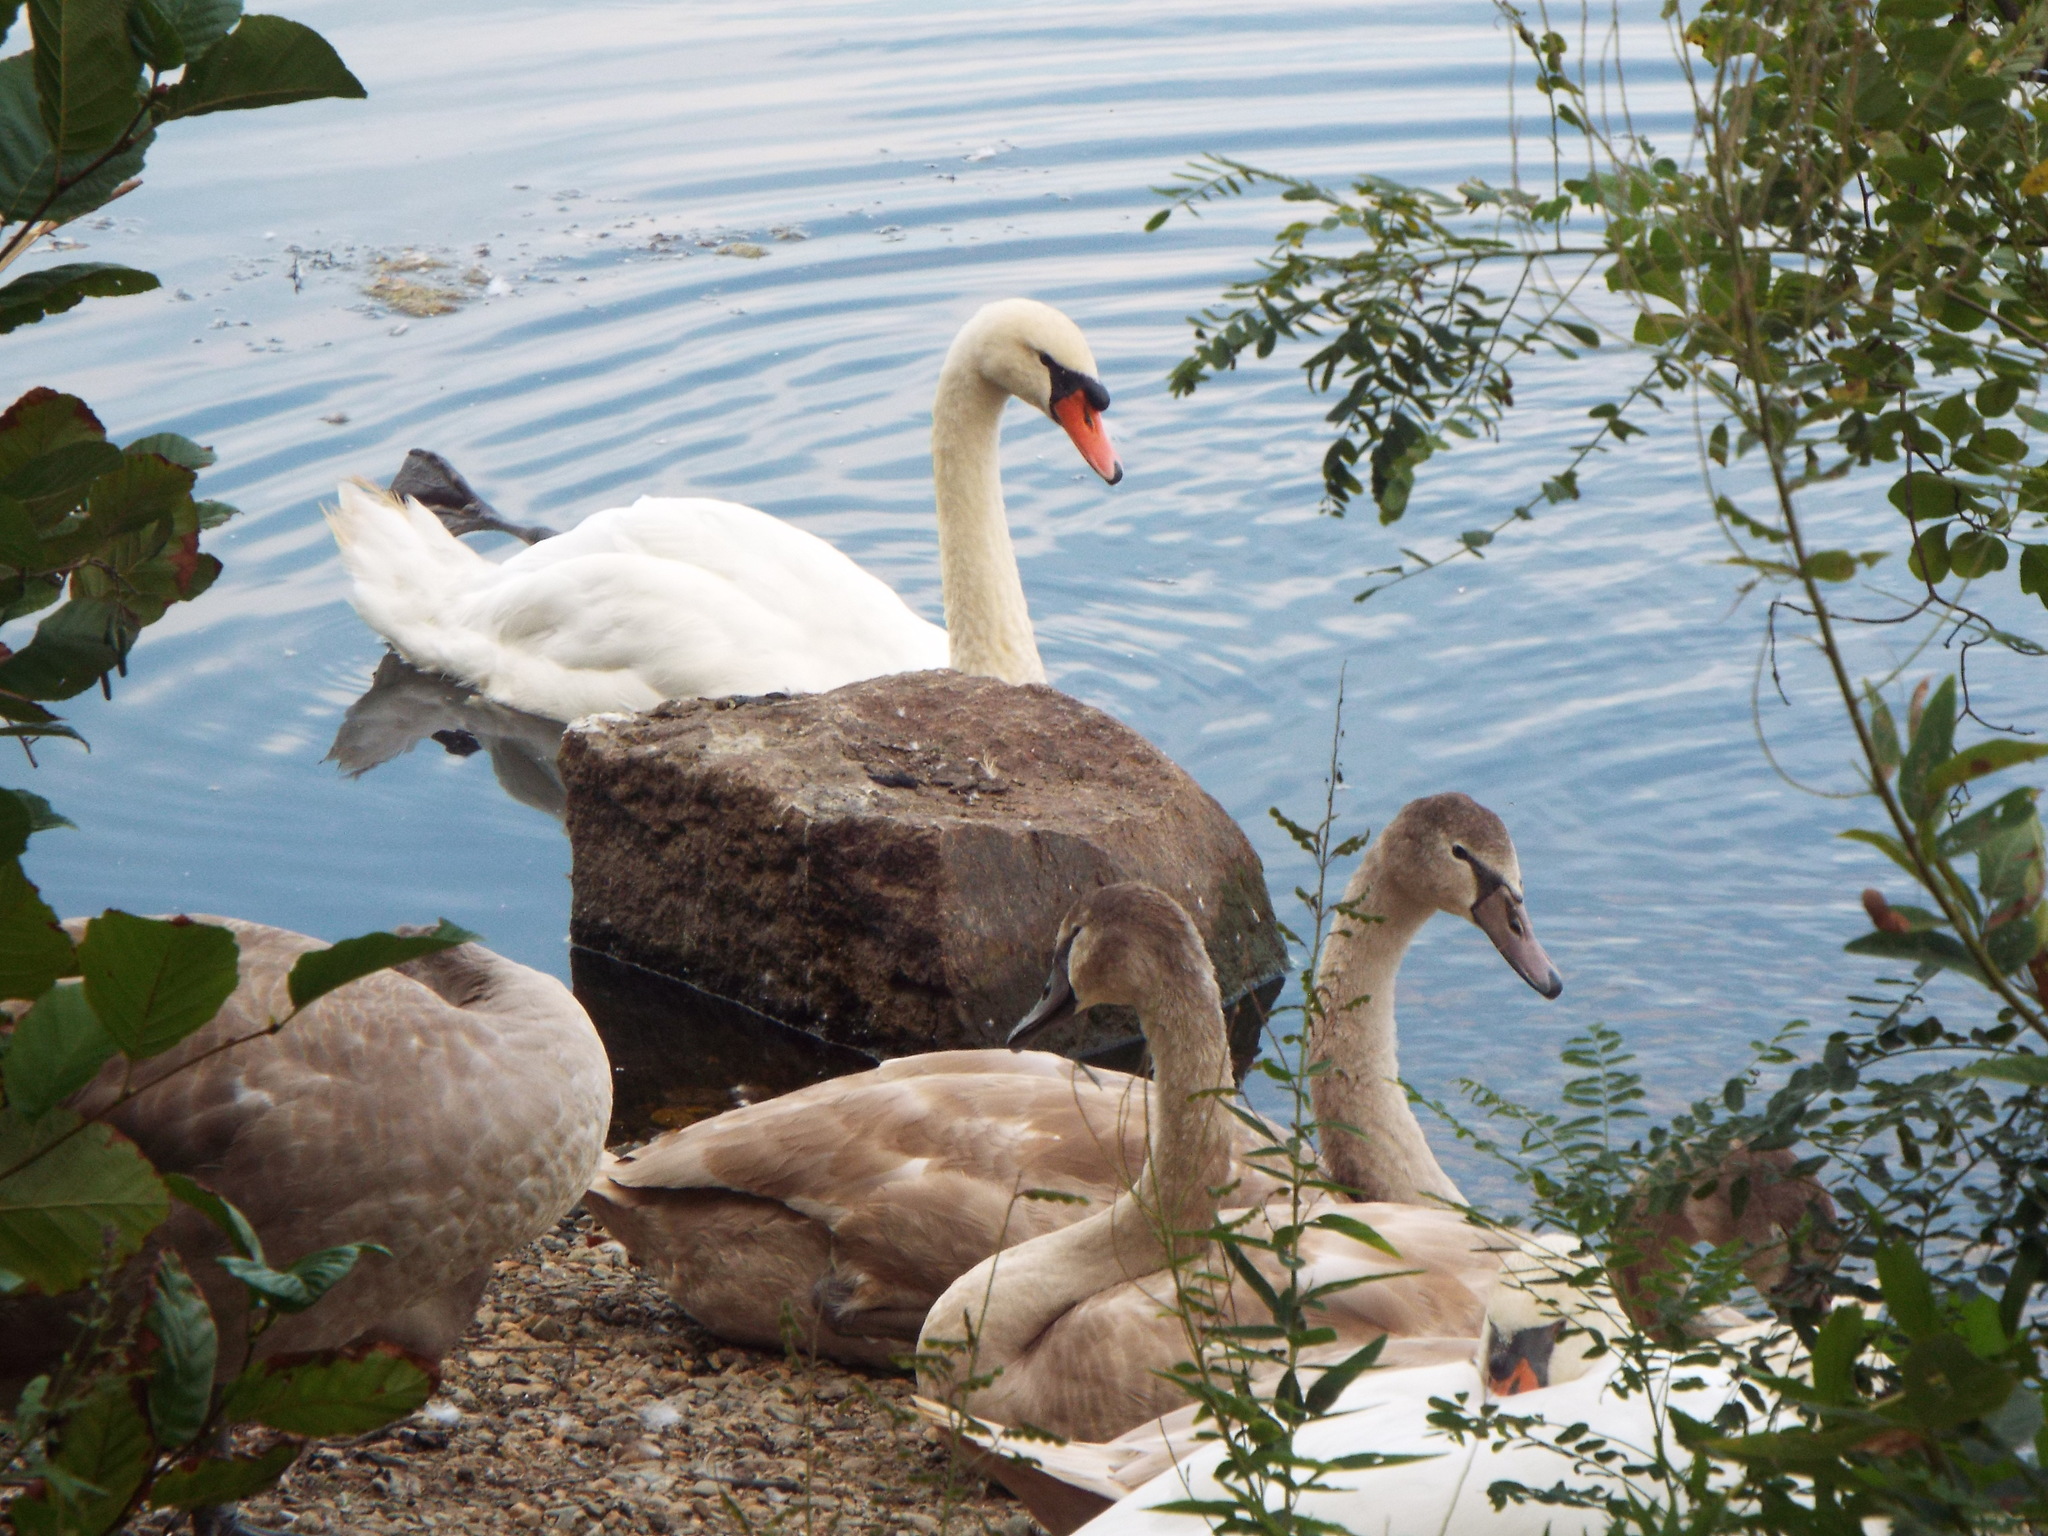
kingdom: Animalia
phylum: Chordata
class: Aves
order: Anseriformes
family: Anatidae
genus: Cygnus
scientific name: Cygnus olor
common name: Mute swan
